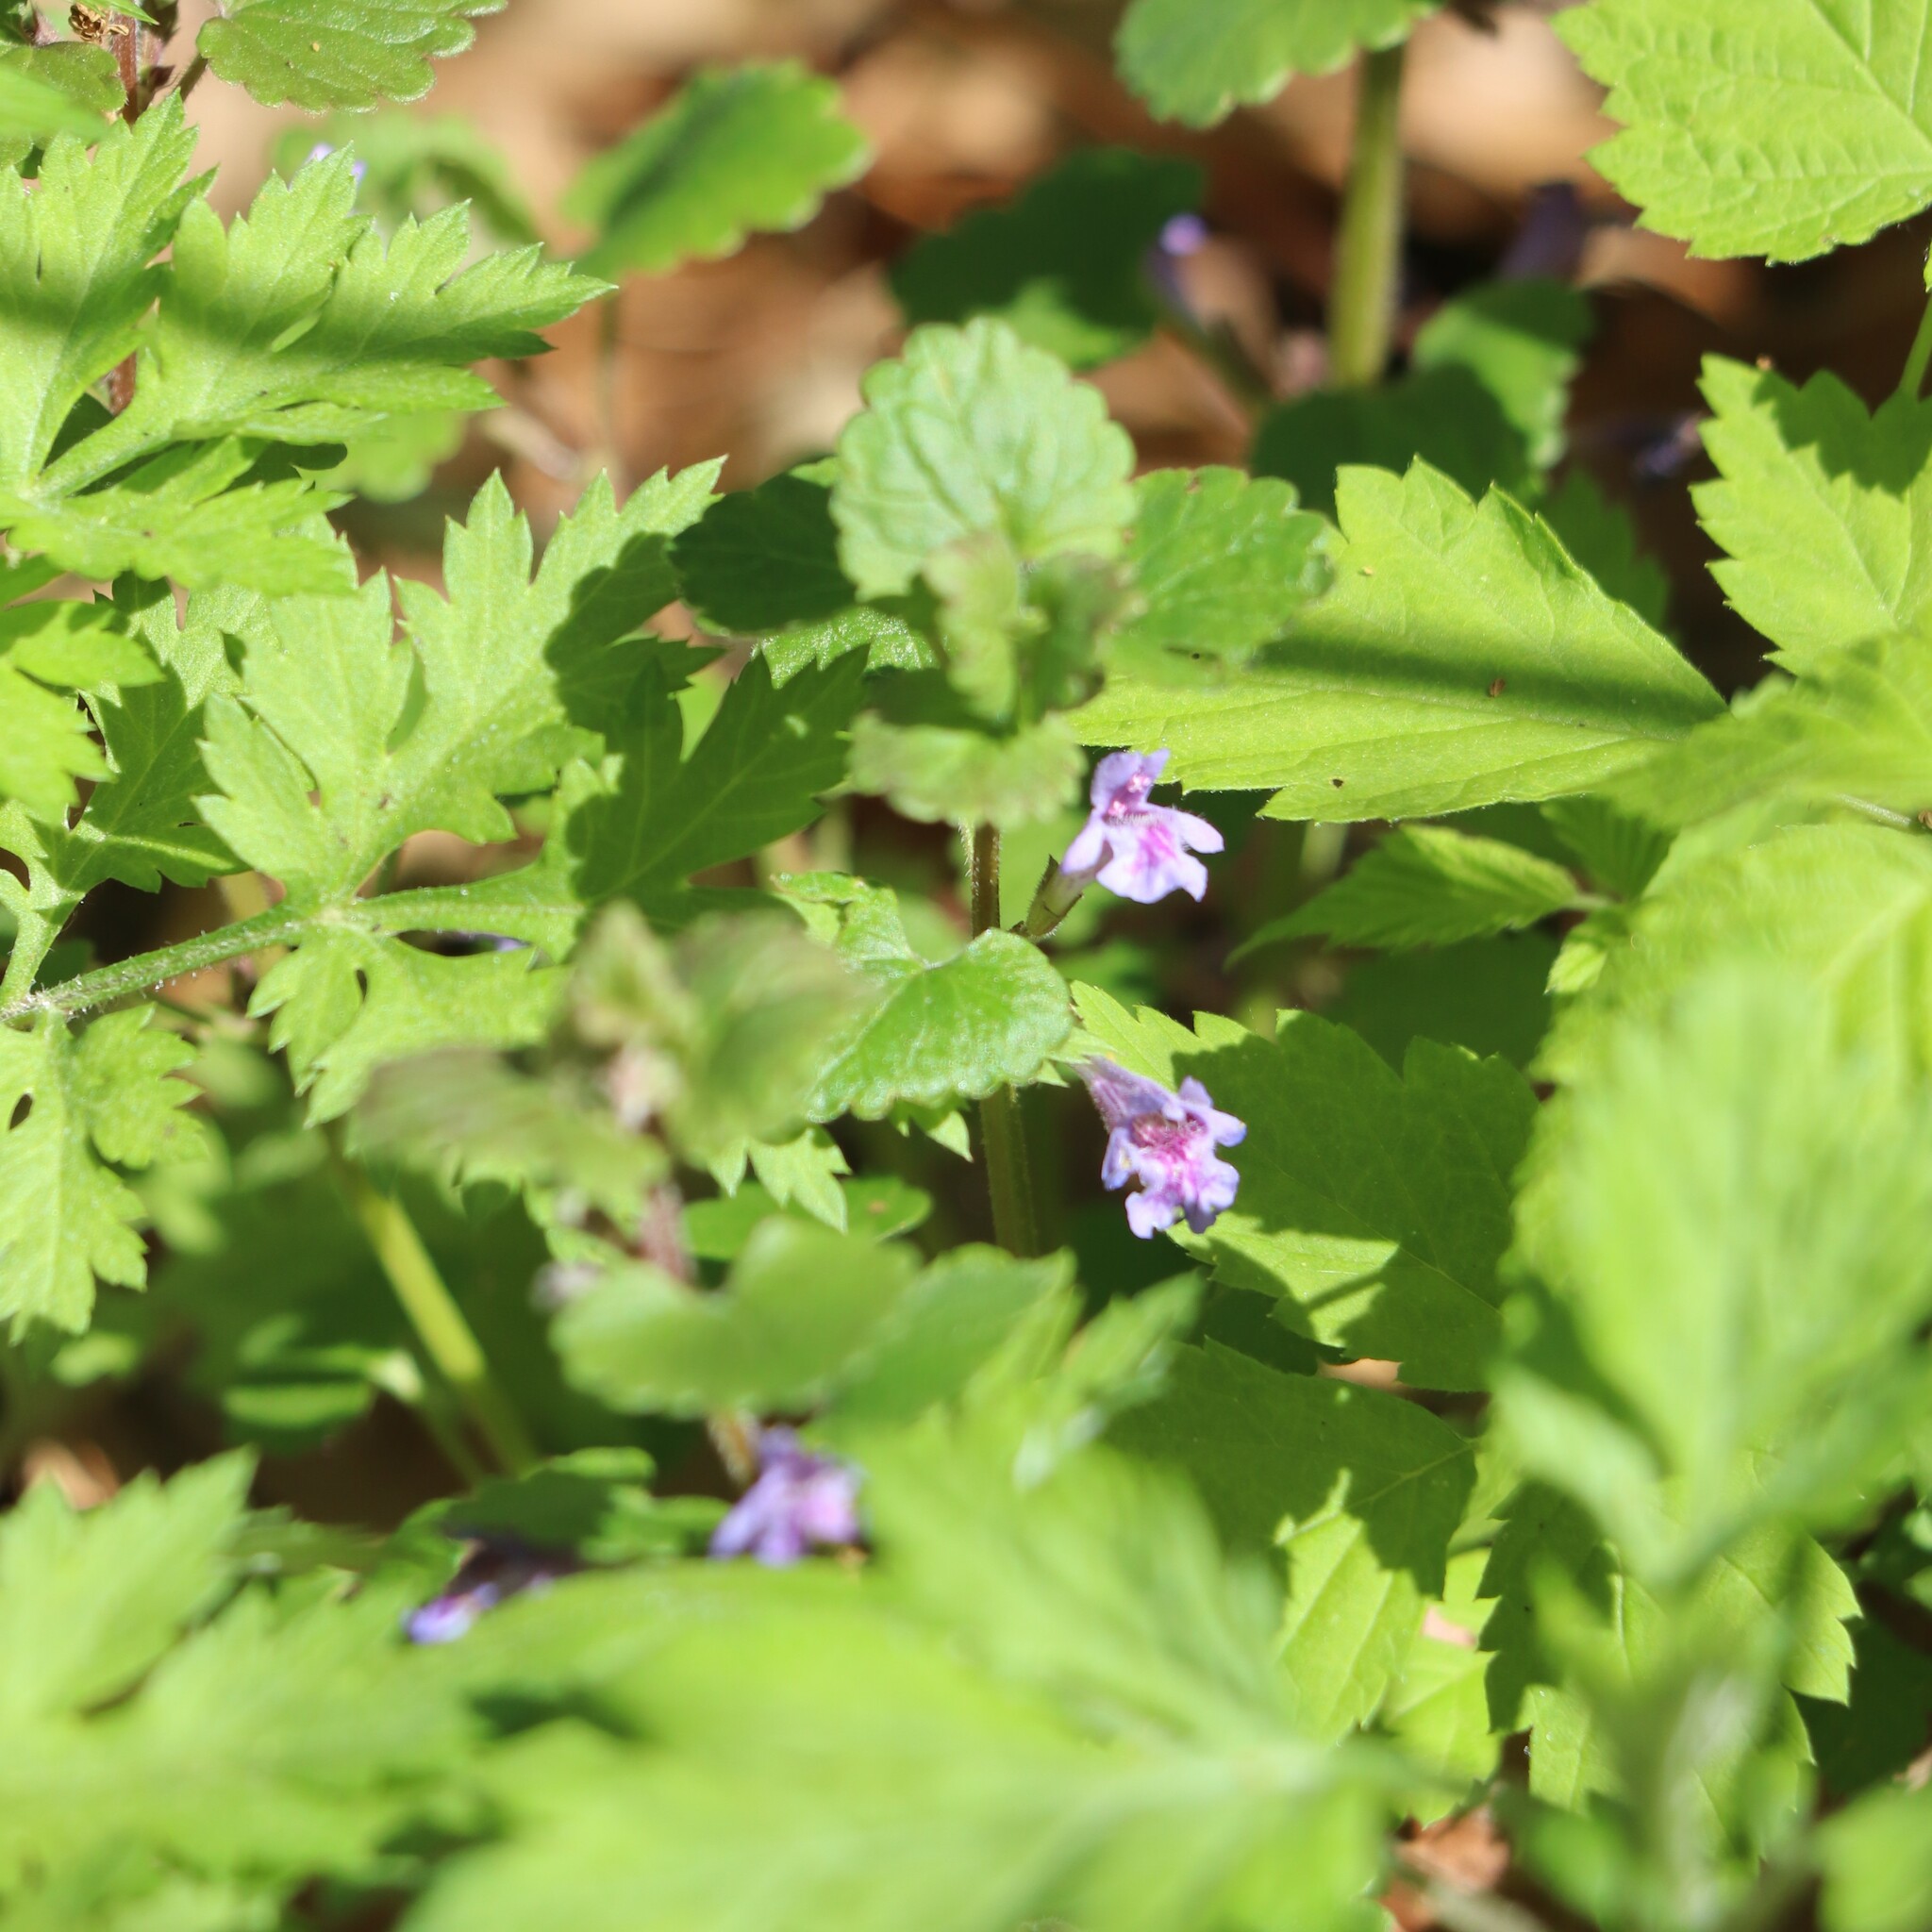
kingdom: Plantae
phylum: Tracheophyta
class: Magnoliopsida
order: Lamiales
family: Lamiaceae
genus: Glechoma
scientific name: Glechoma hederacea
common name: Ground ivy
